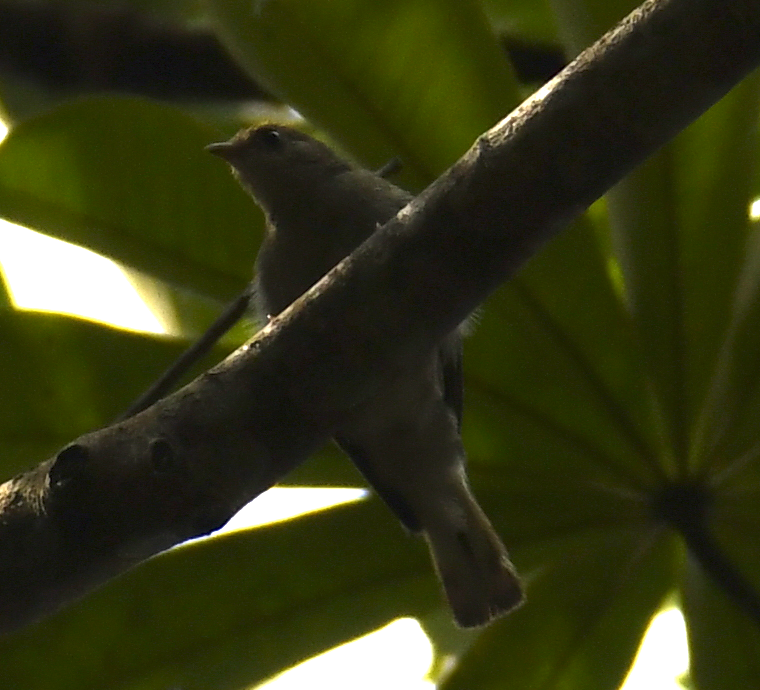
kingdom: Animalia
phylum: Chordata
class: Aves
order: Piciformes
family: Indicatoridae
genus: Melignomon
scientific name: Melignomon eisentrauti
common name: Yellow-footed honeyguide
